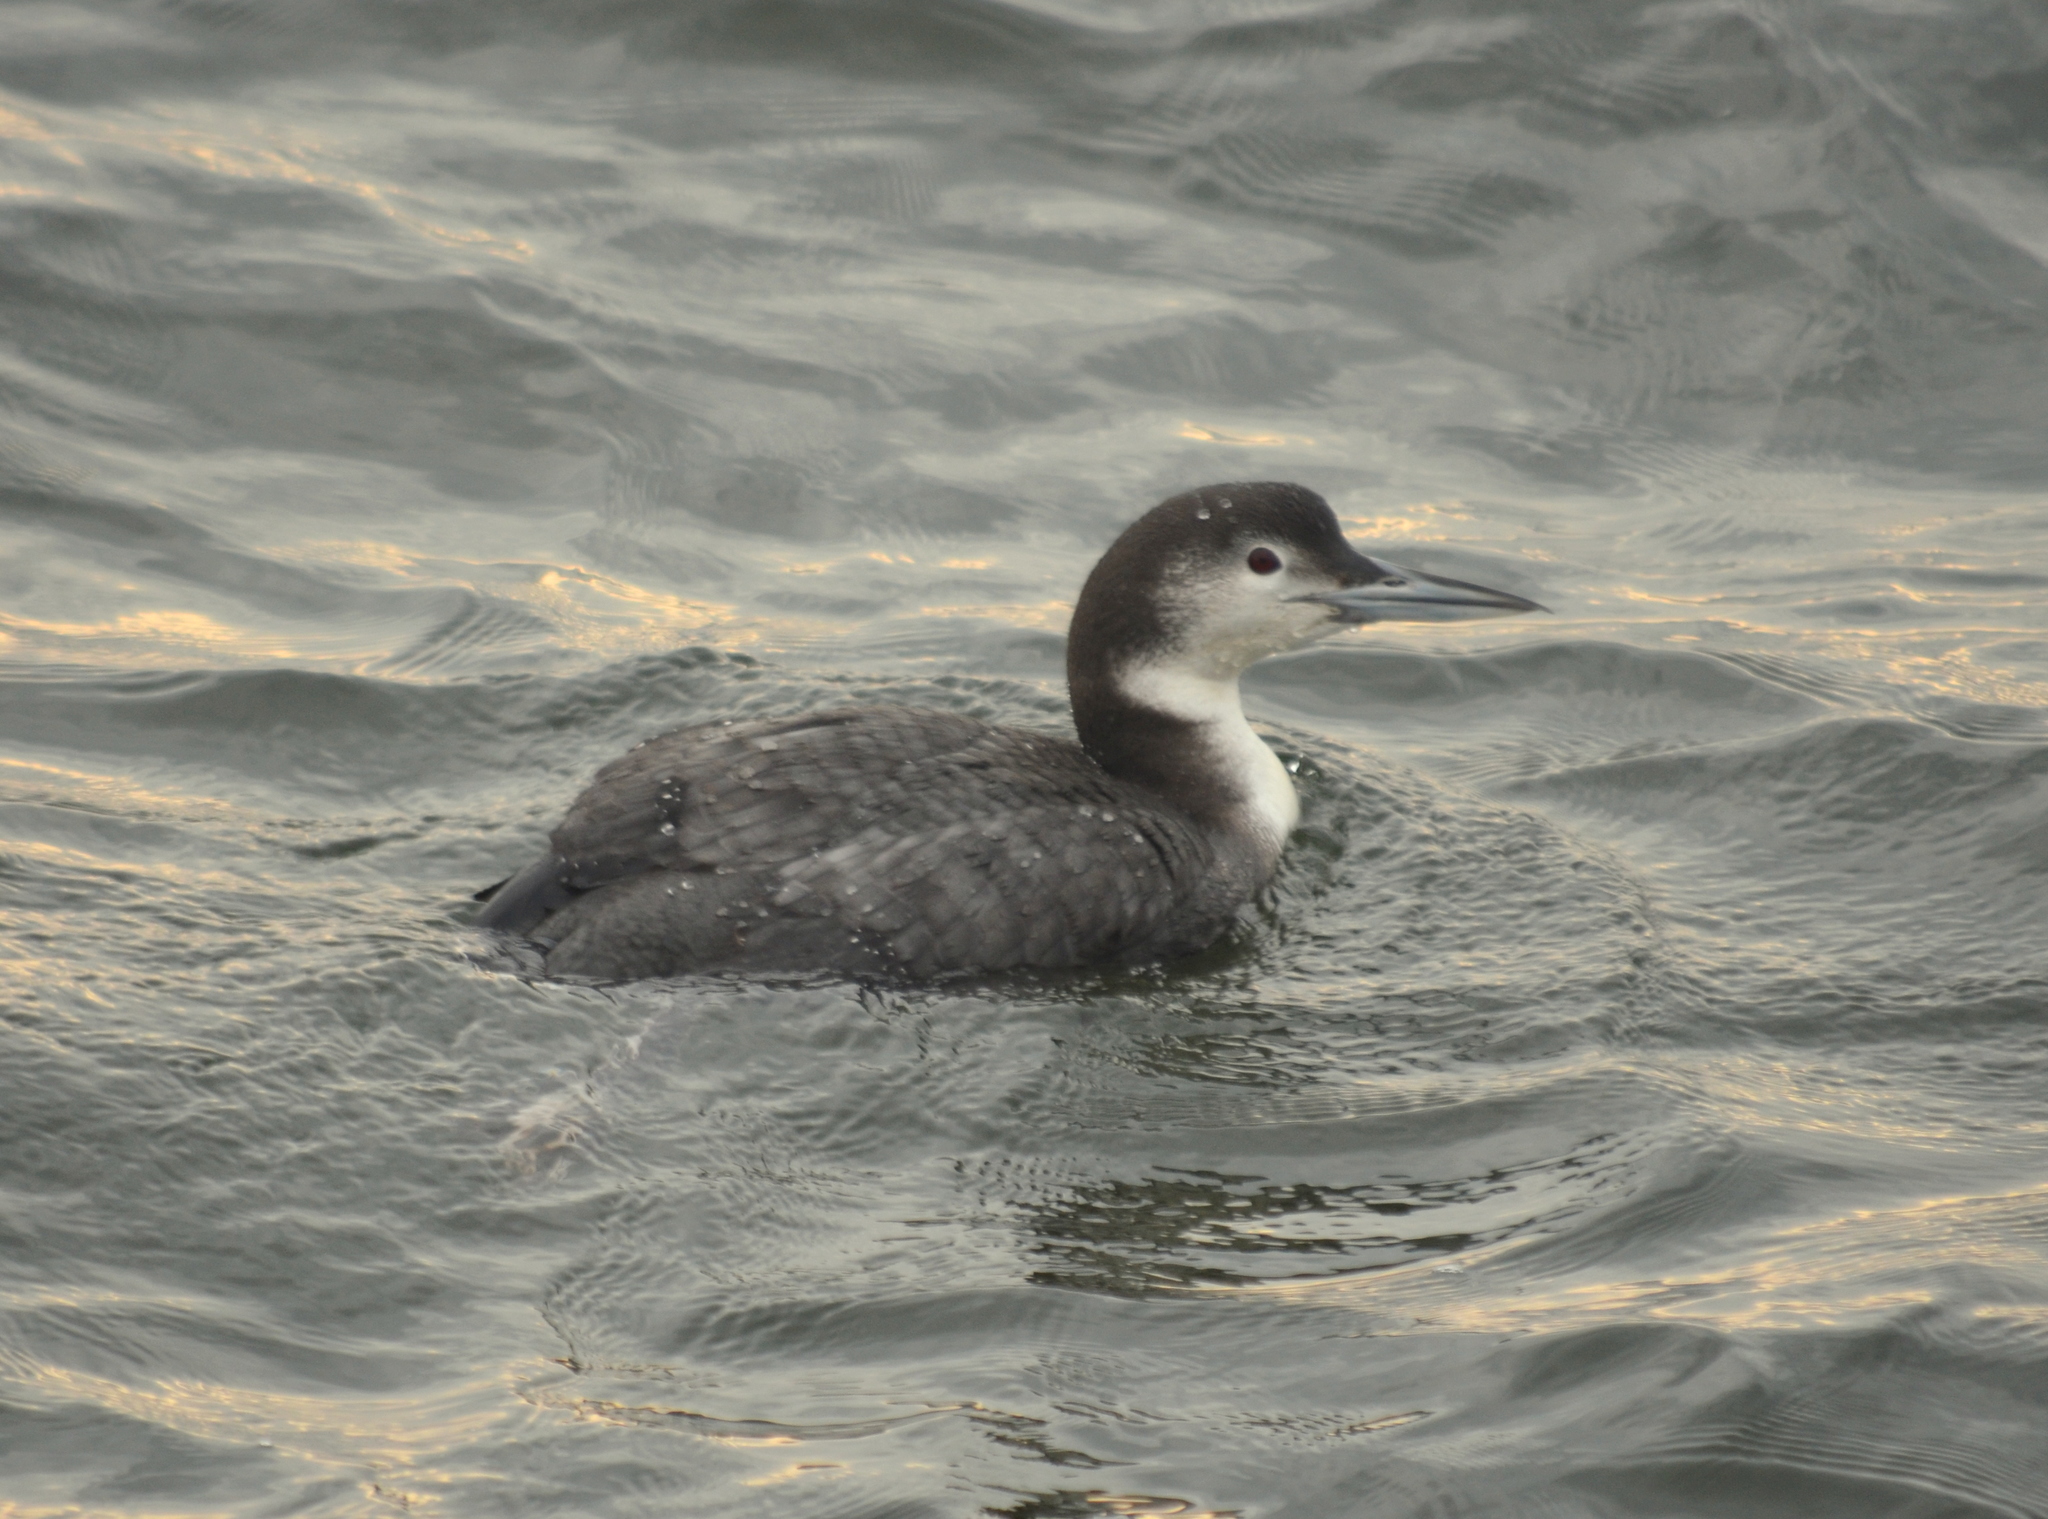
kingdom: Animalia
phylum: Chordata
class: Aves
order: Gaviiformes
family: Gaviidae
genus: Gavia
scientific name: Gavia immer
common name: Common loon
